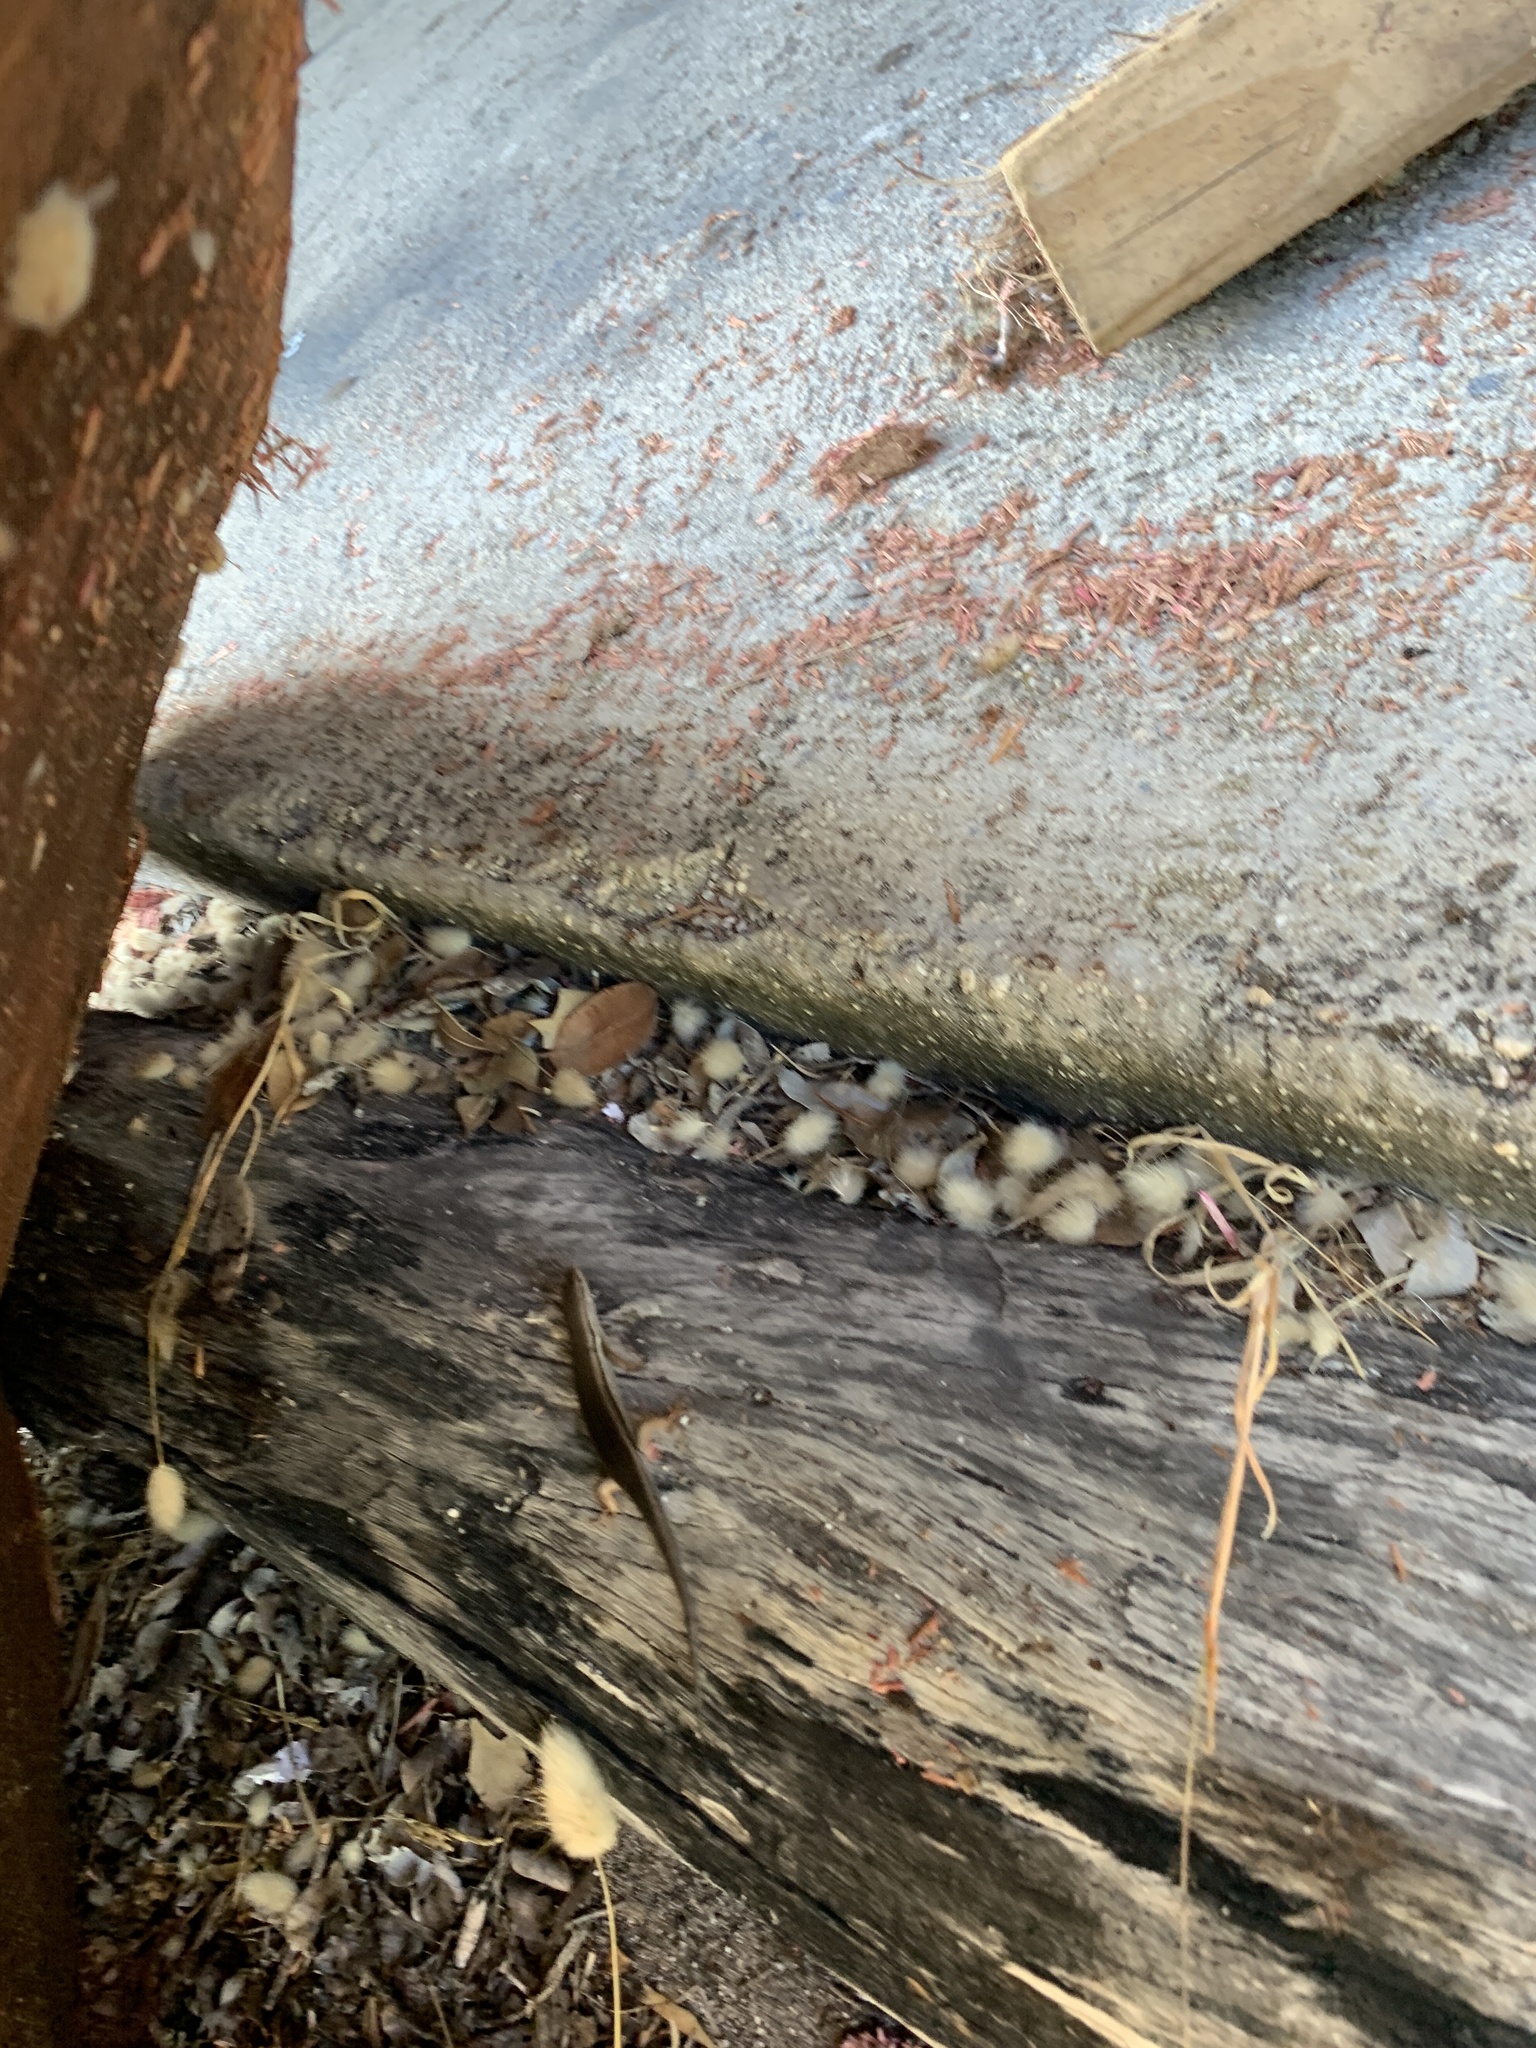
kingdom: Animalia
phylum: Chordata
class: Squamata
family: Scincidae
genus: Trachylepis
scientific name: Trachylepis homalocephala
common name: Red-sided skink
